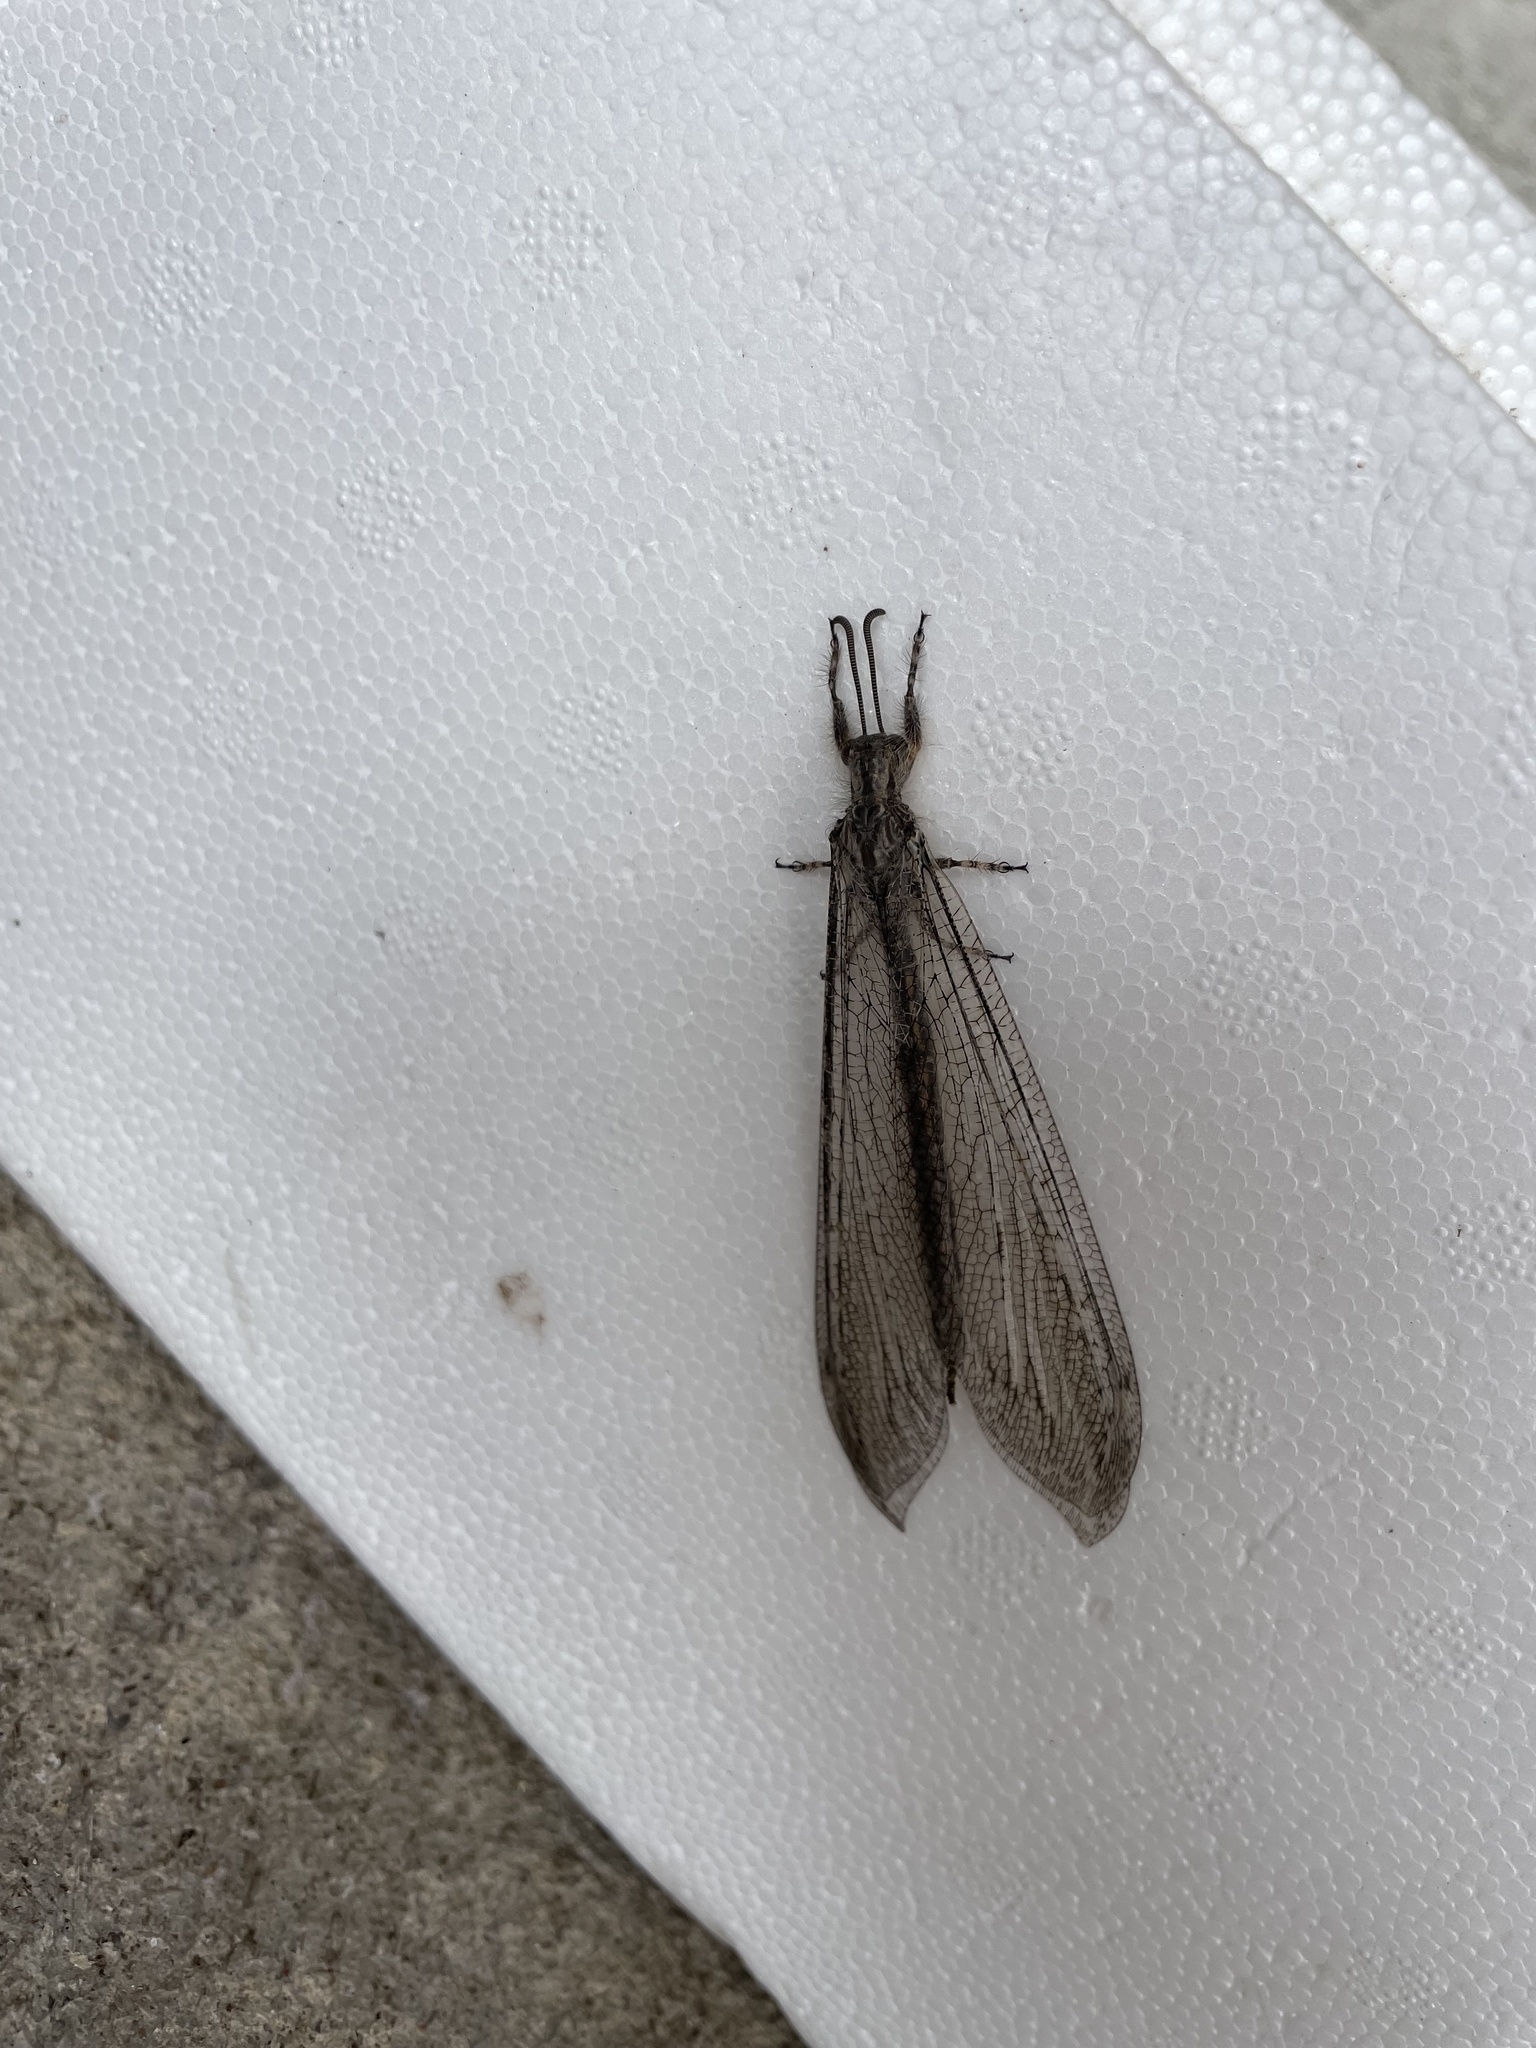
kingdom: Animalia
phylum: Arthropoda
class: Insecta
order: Neuroptera
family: Myrmeleontidae
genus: Vella
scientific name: Vella fallax
